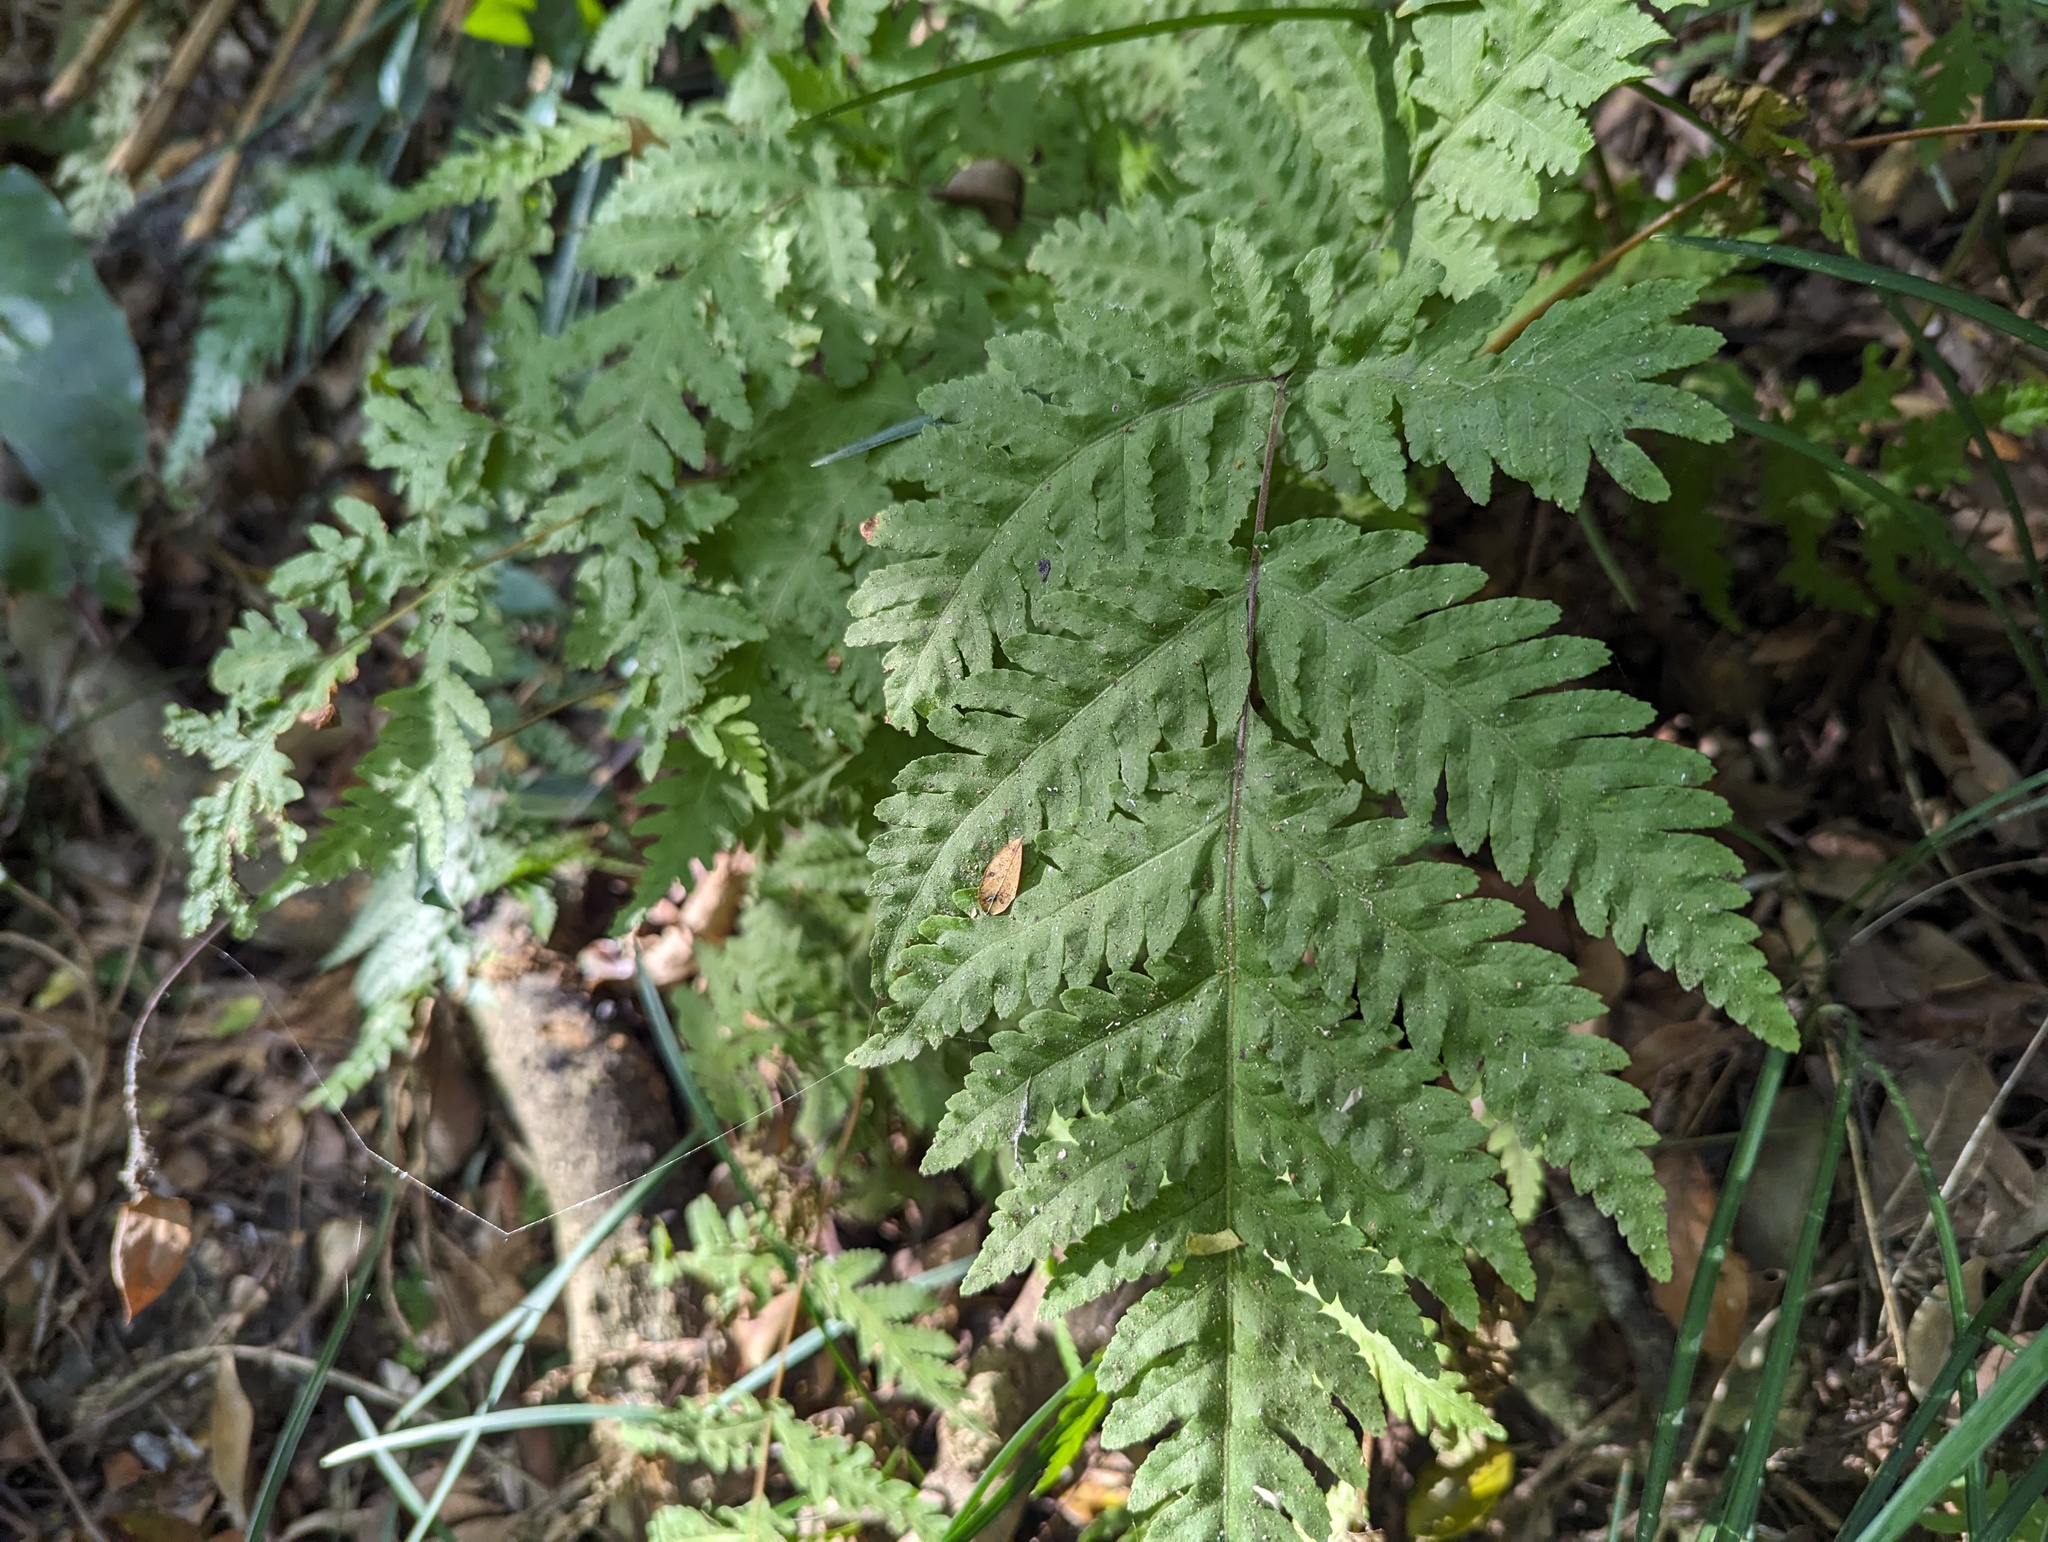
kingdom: Plantae
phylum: Tracheophyta
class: Polypodiopsida
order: Polypodiales
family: Tectariaceae
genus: Tectaria
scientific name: Tectaria membranacea
